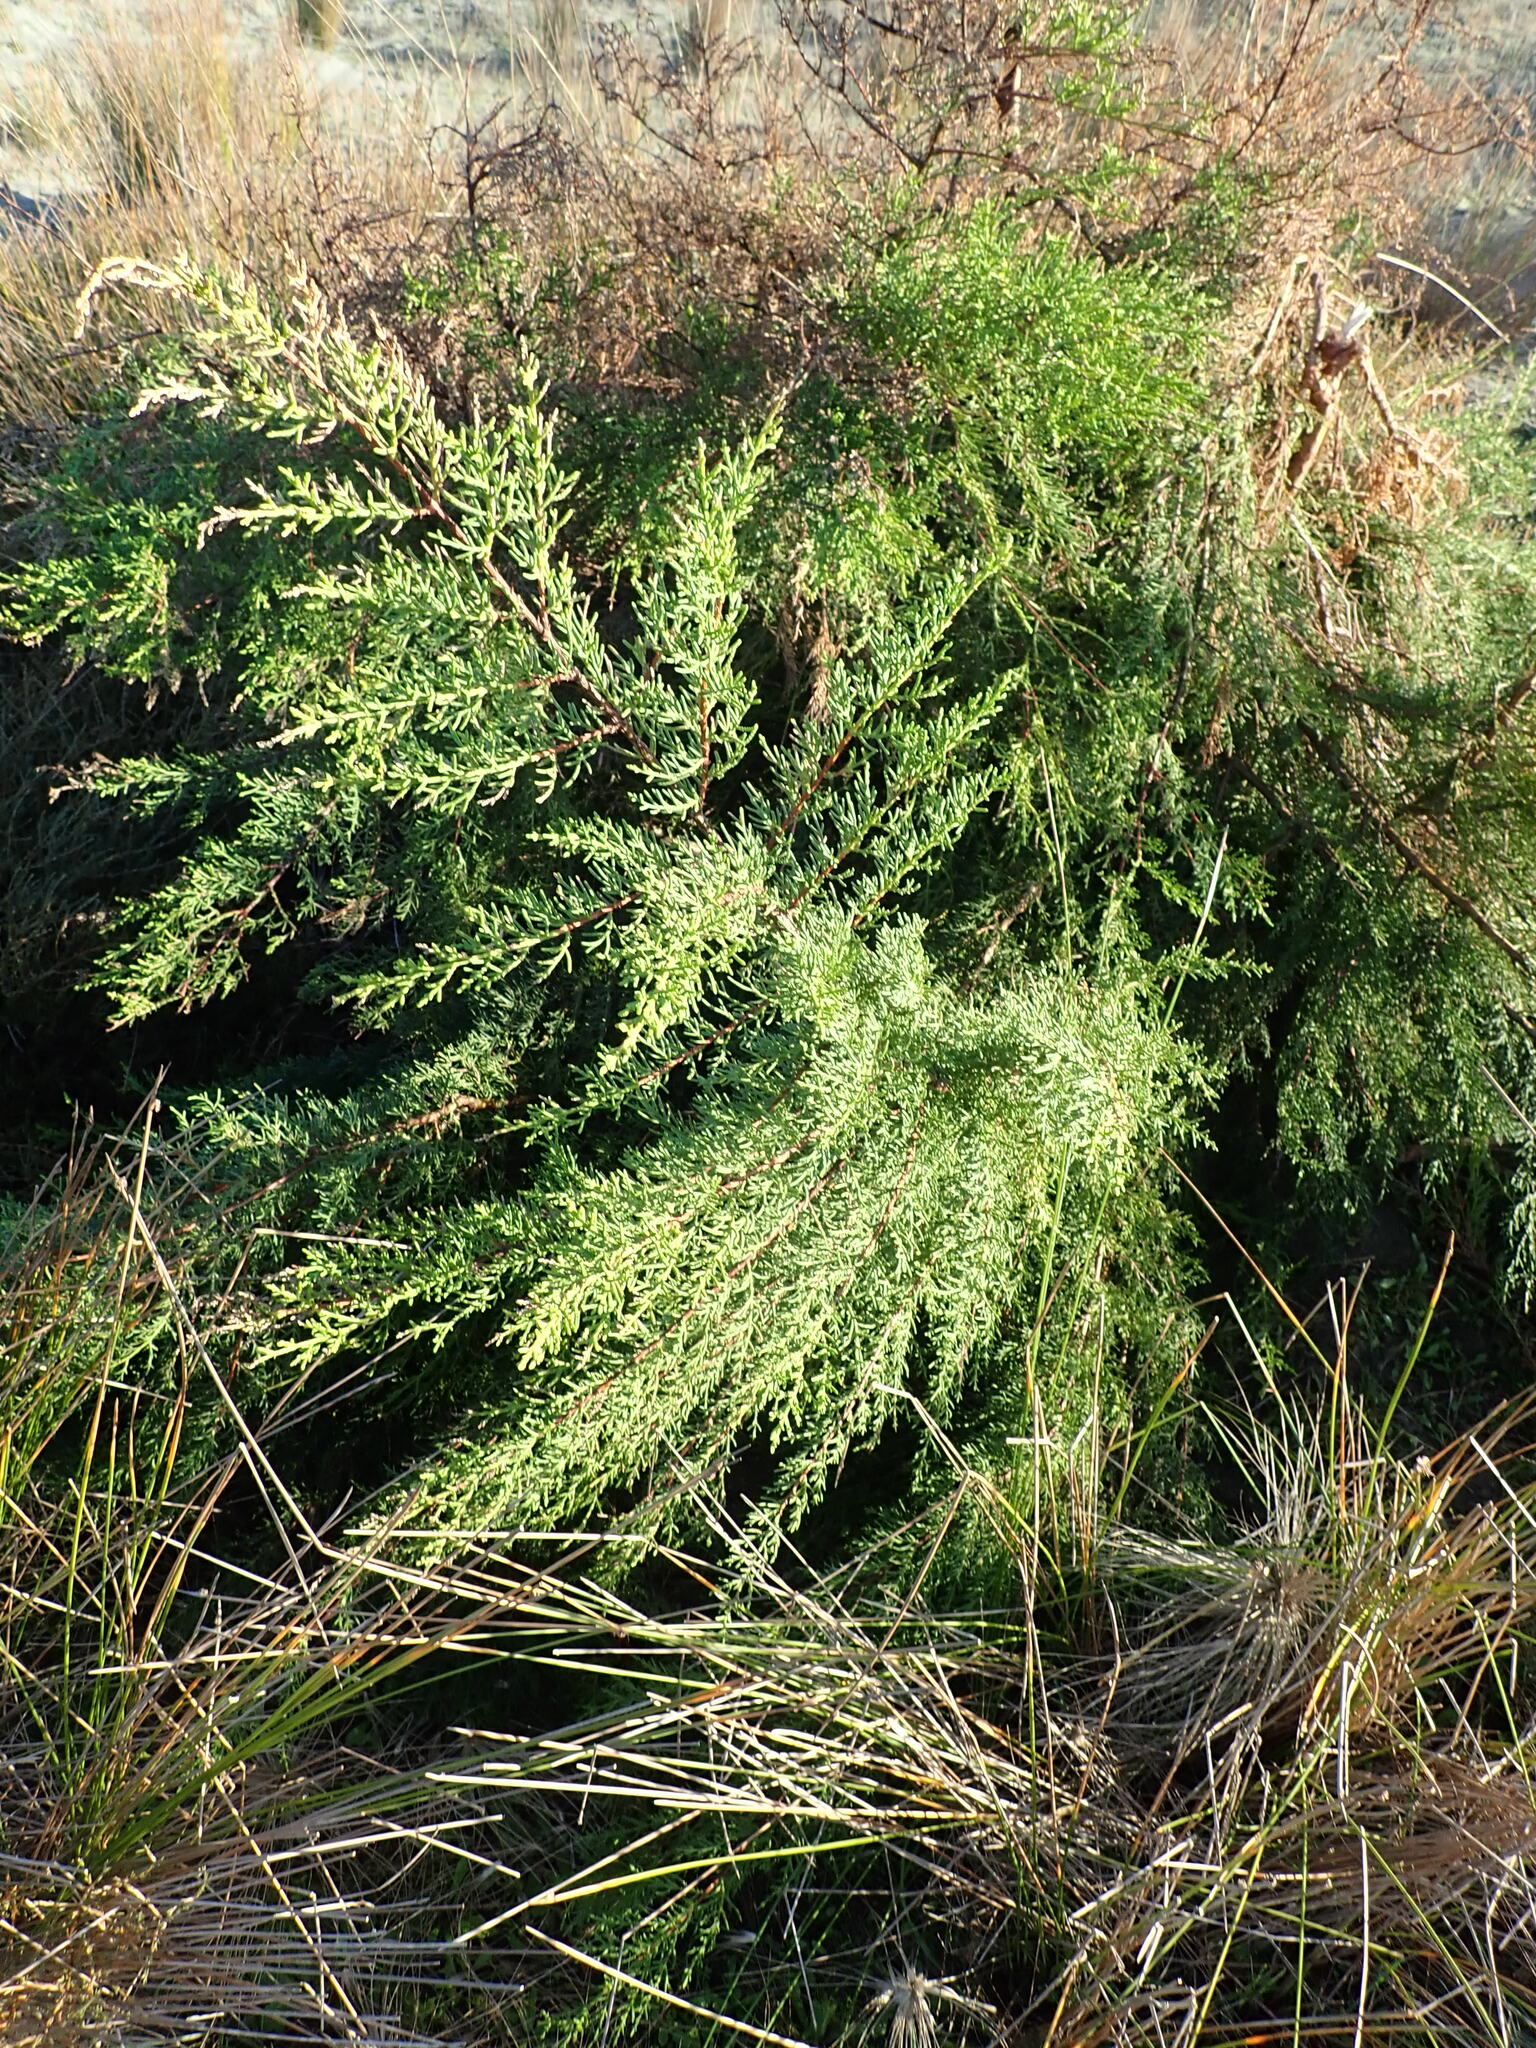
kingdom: Plantae
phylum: Tracheophyta
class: Pinopsida
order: Pinales
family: Cupressaceae
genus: Cupressus
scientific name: Cupressus macrocarpa
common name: Monterey cypress
